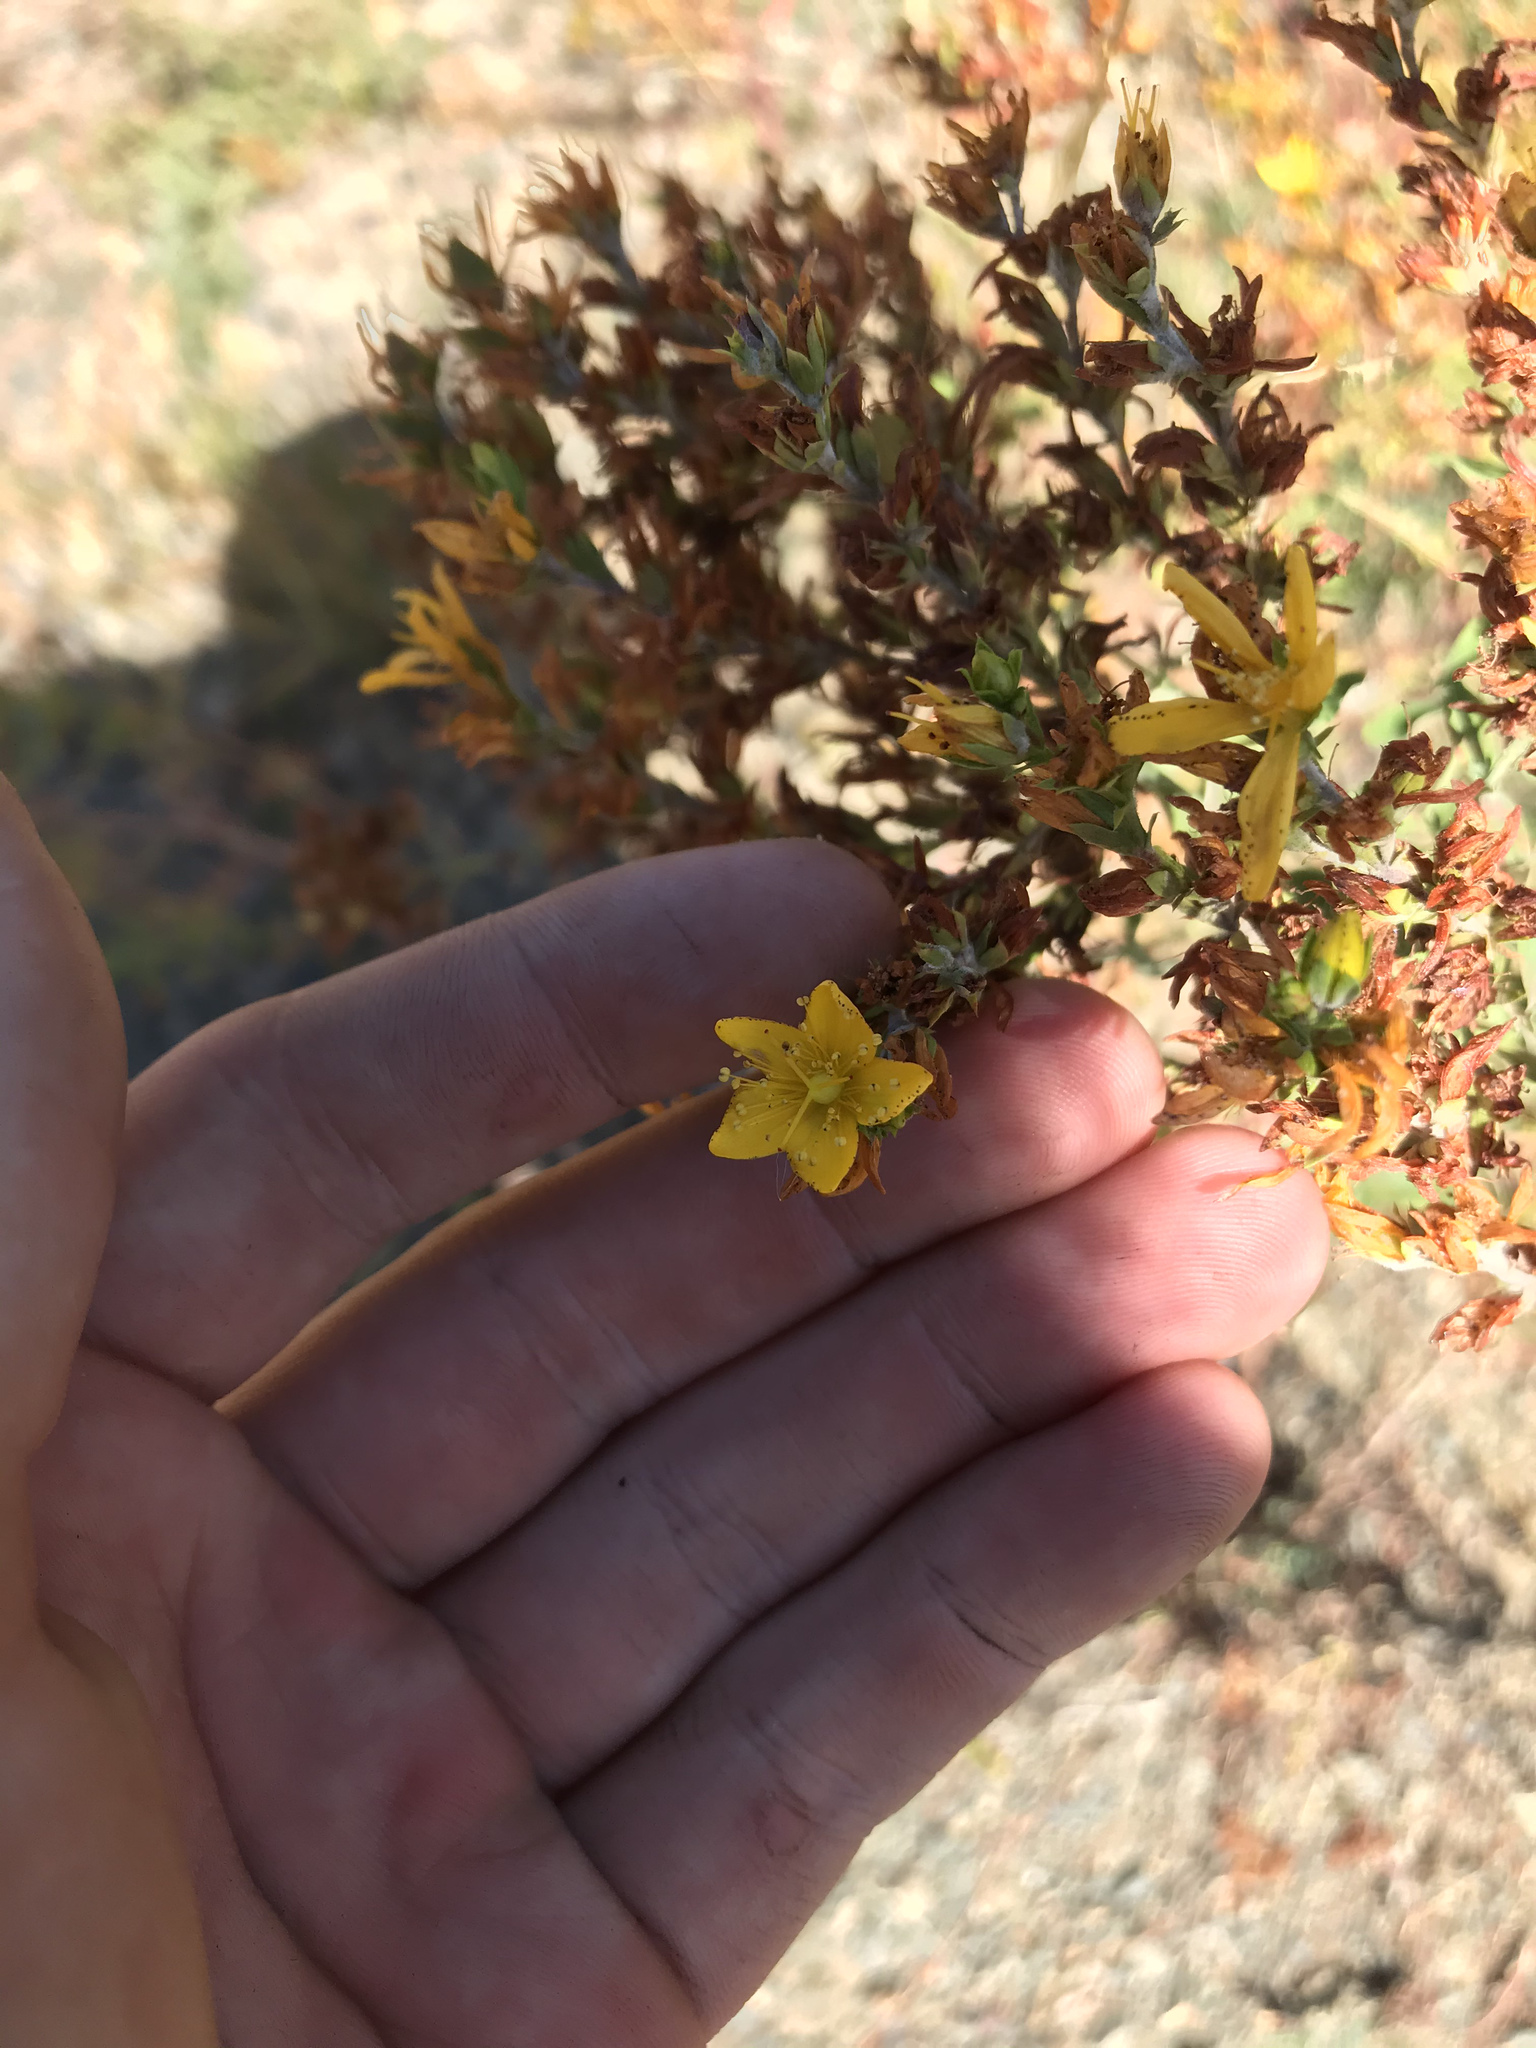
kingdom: Plantae
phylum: Tracheophyta
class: Magnoliopsida
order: Malpighiales
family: Hypericaceae
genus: Hypericum
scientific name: Hypericum perforatum
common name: Common st. johnswort
